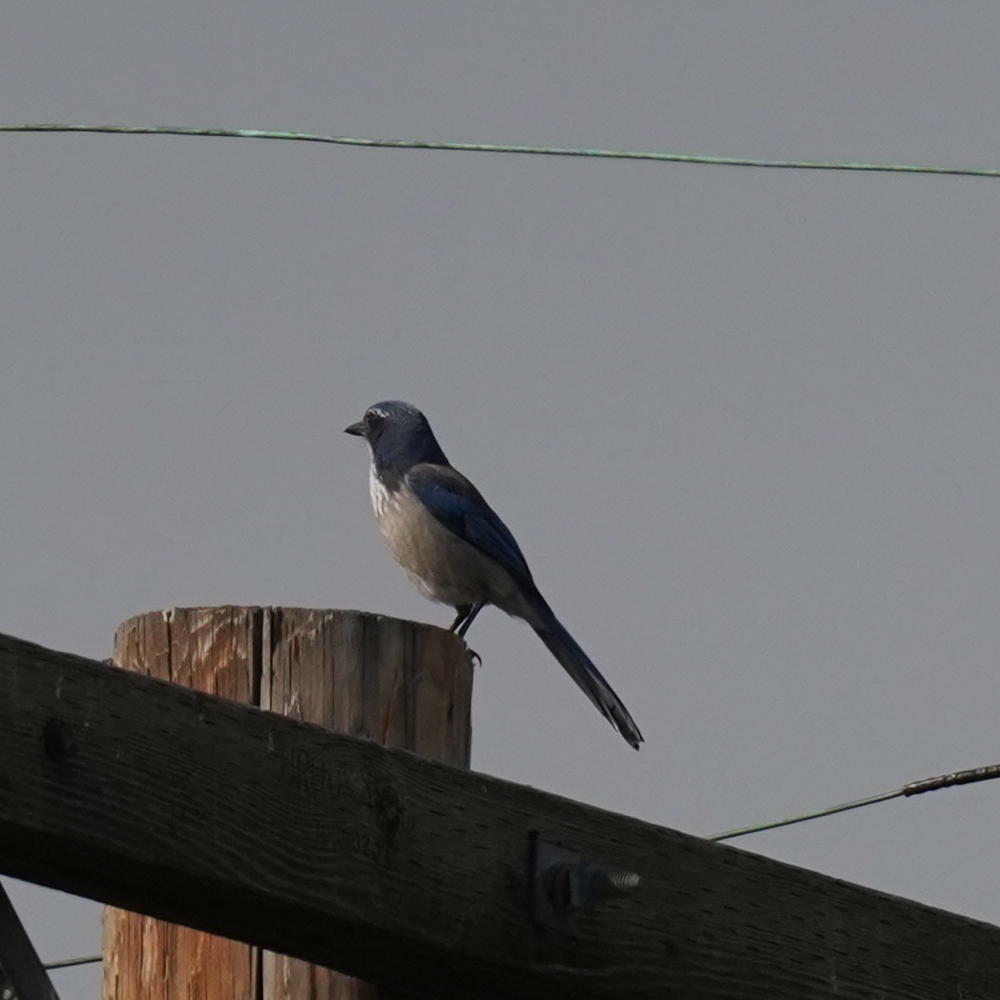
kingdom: Animalia
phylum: Chordata
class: Aves
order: Passeriformes
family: Corvidae
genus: Aphelocoma
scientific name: Aphelocoma californica
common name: California scrub-jay
